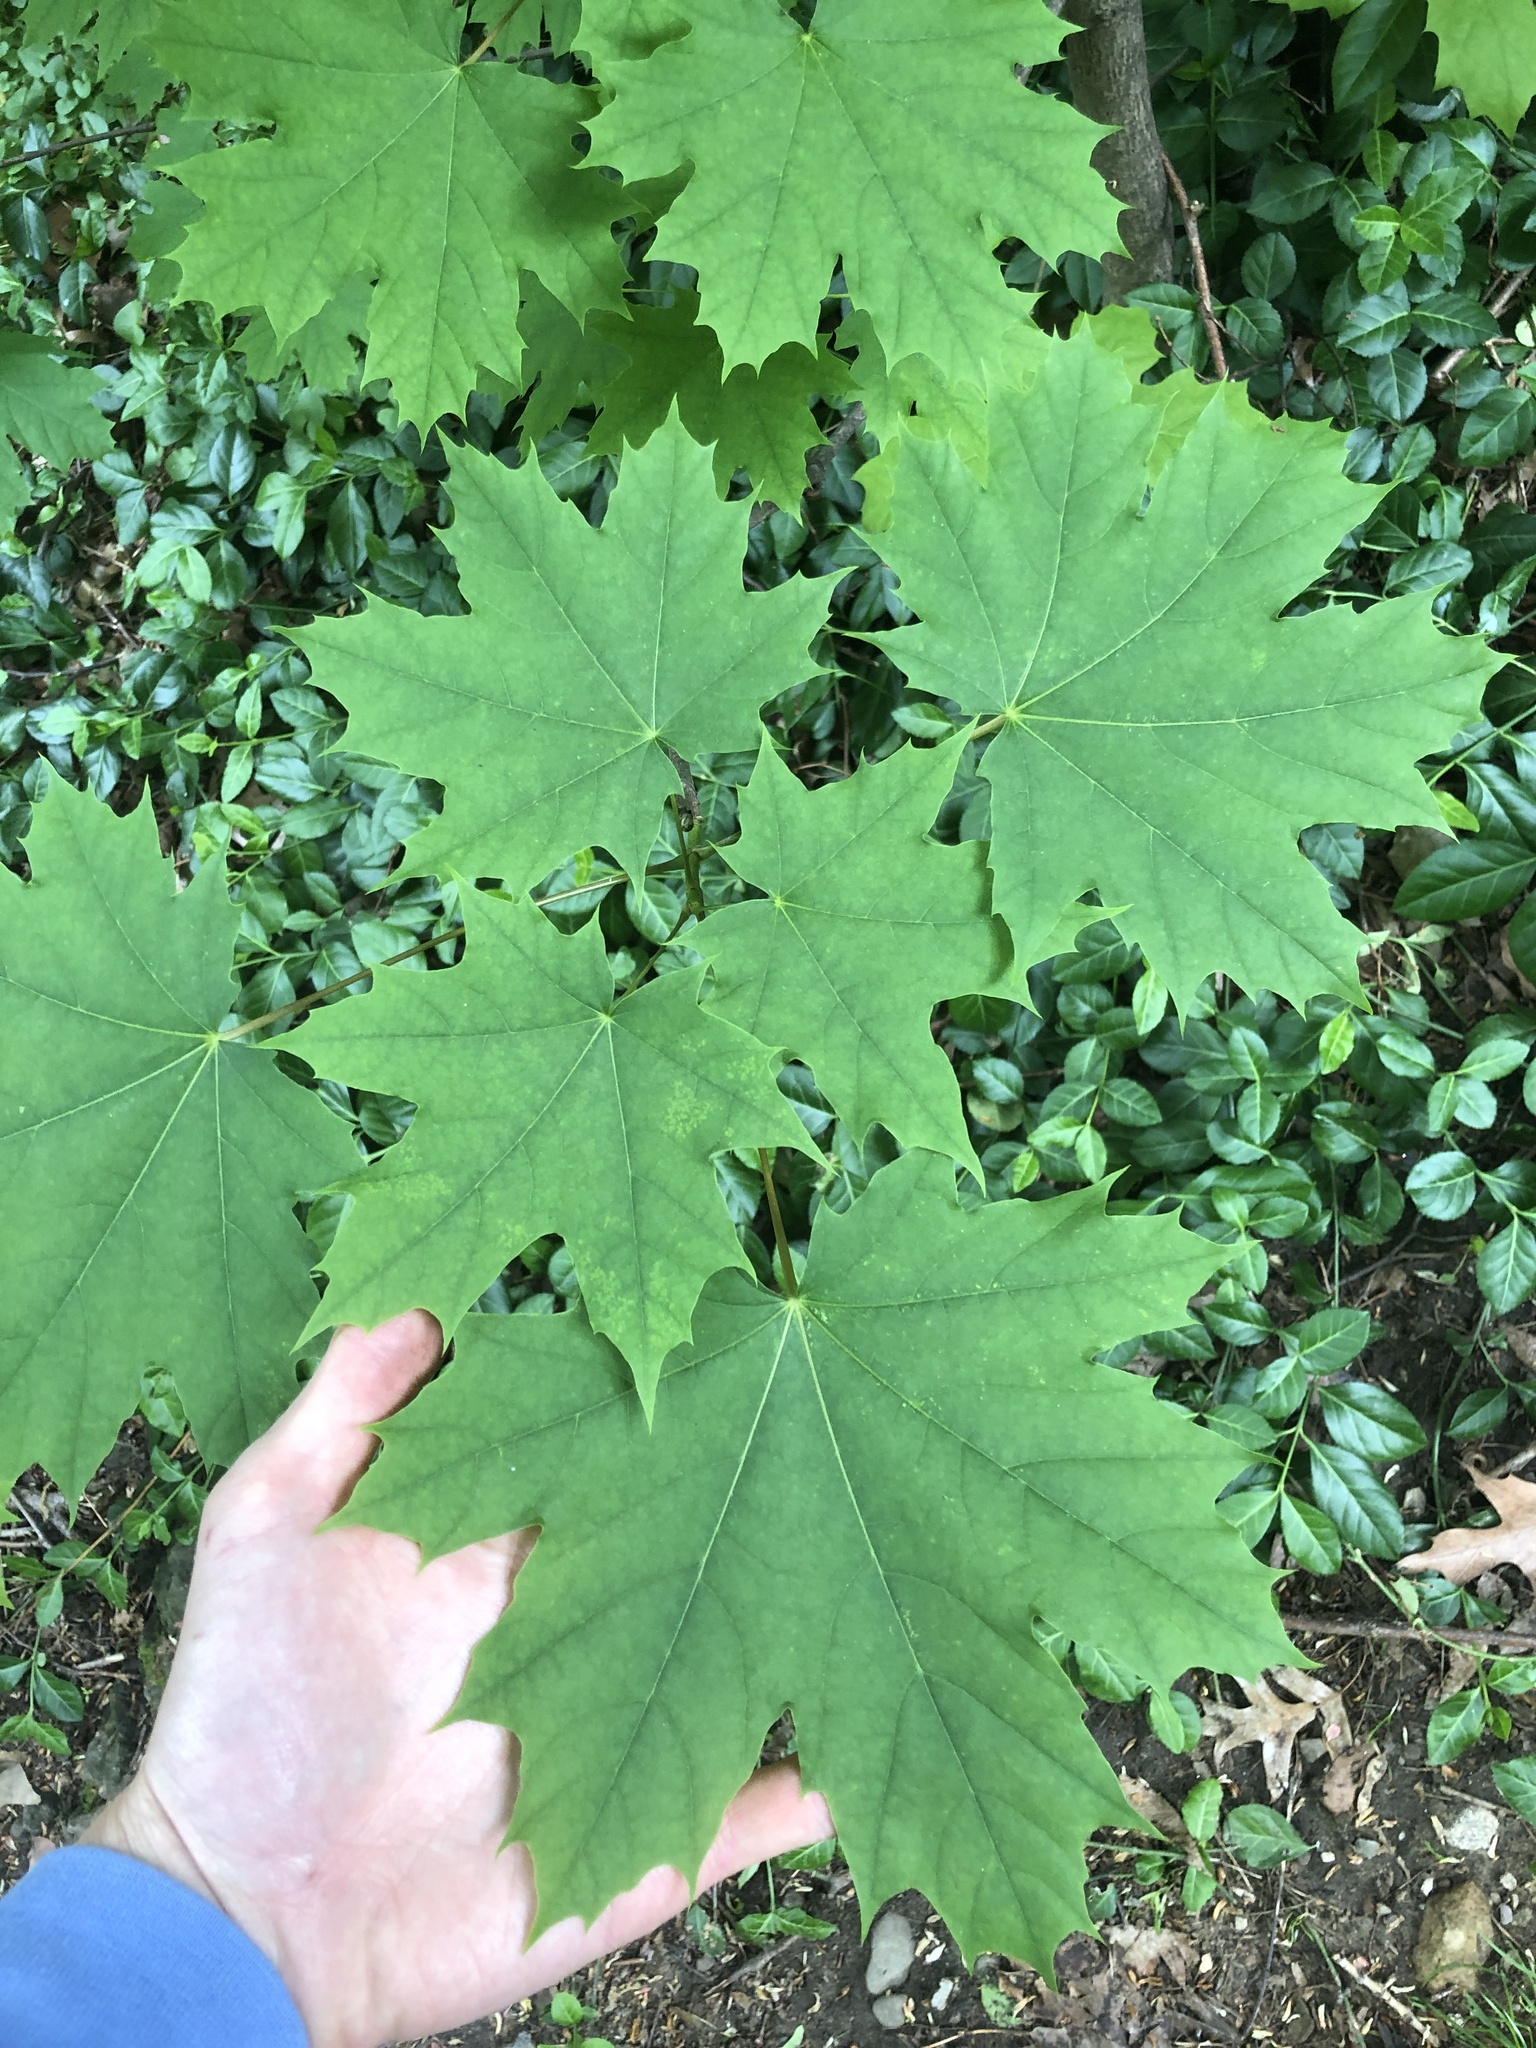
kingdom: Plantae
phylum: Tracheophyta
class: Magnoliopsida
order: Sapindales
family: Sapindaceae
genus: Acer
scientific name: Acer platanoides
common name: Norway maple
